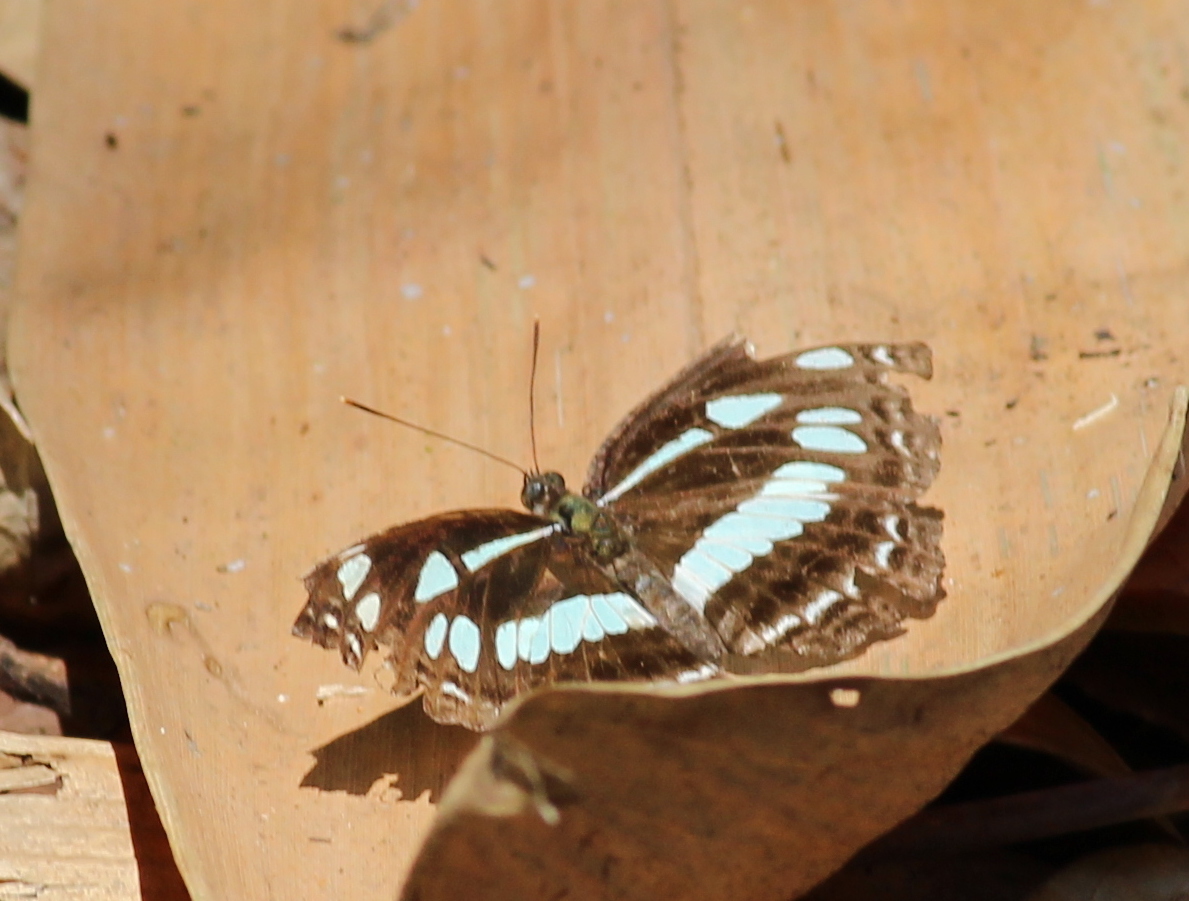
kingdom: Animalia
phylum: Arthropoda
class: Insecta
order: Lepidoptera
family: Nymphalidae
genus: Neptis
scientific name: Neptis jumbah
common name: Chestnut-streaked sailer
